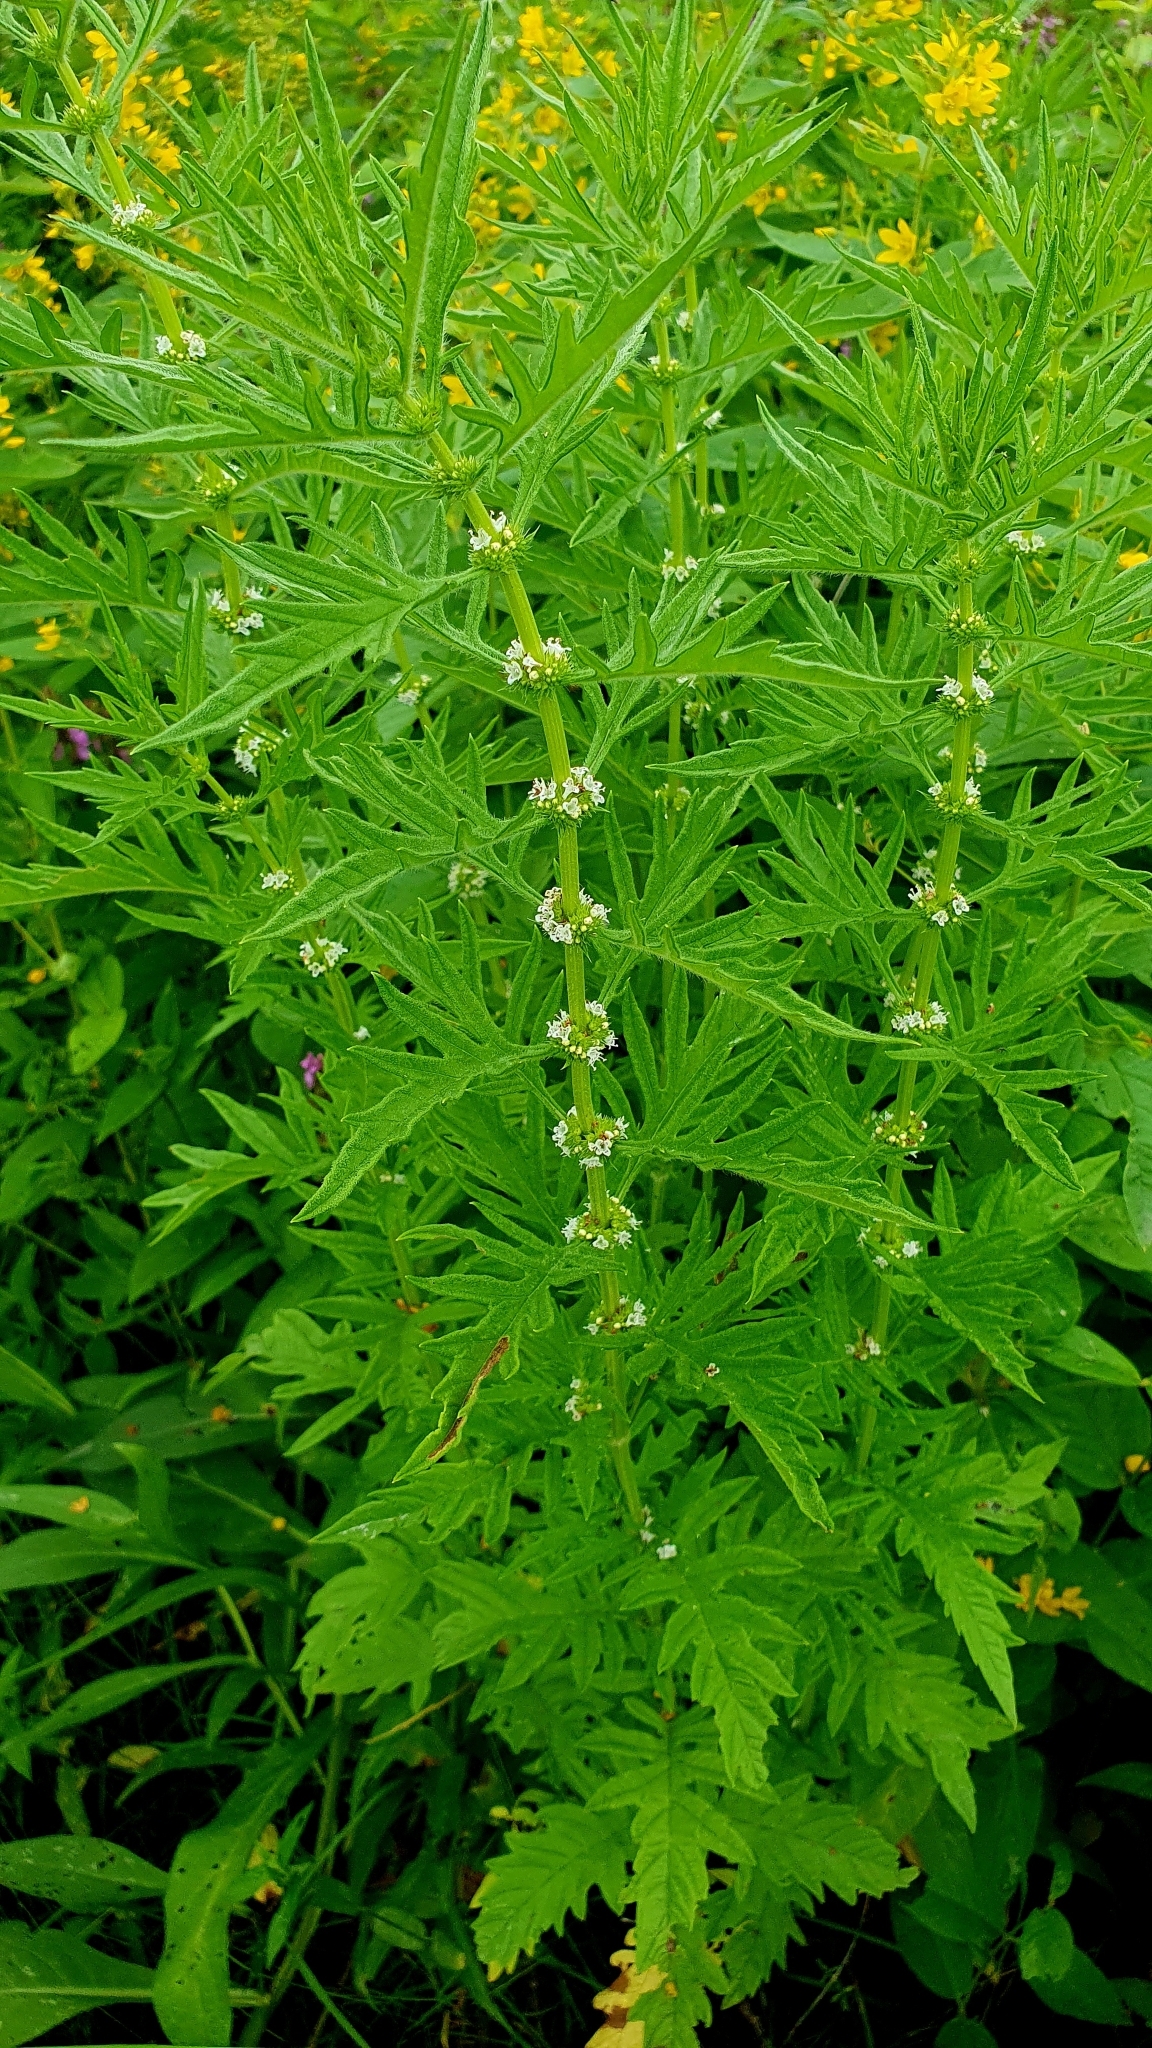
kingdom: Plantae
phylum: Tracheophyta
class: Magnoliopsida
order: Lamiales
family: Lamiaceae
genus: Lycopus
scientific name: Lycopus exaltatus
